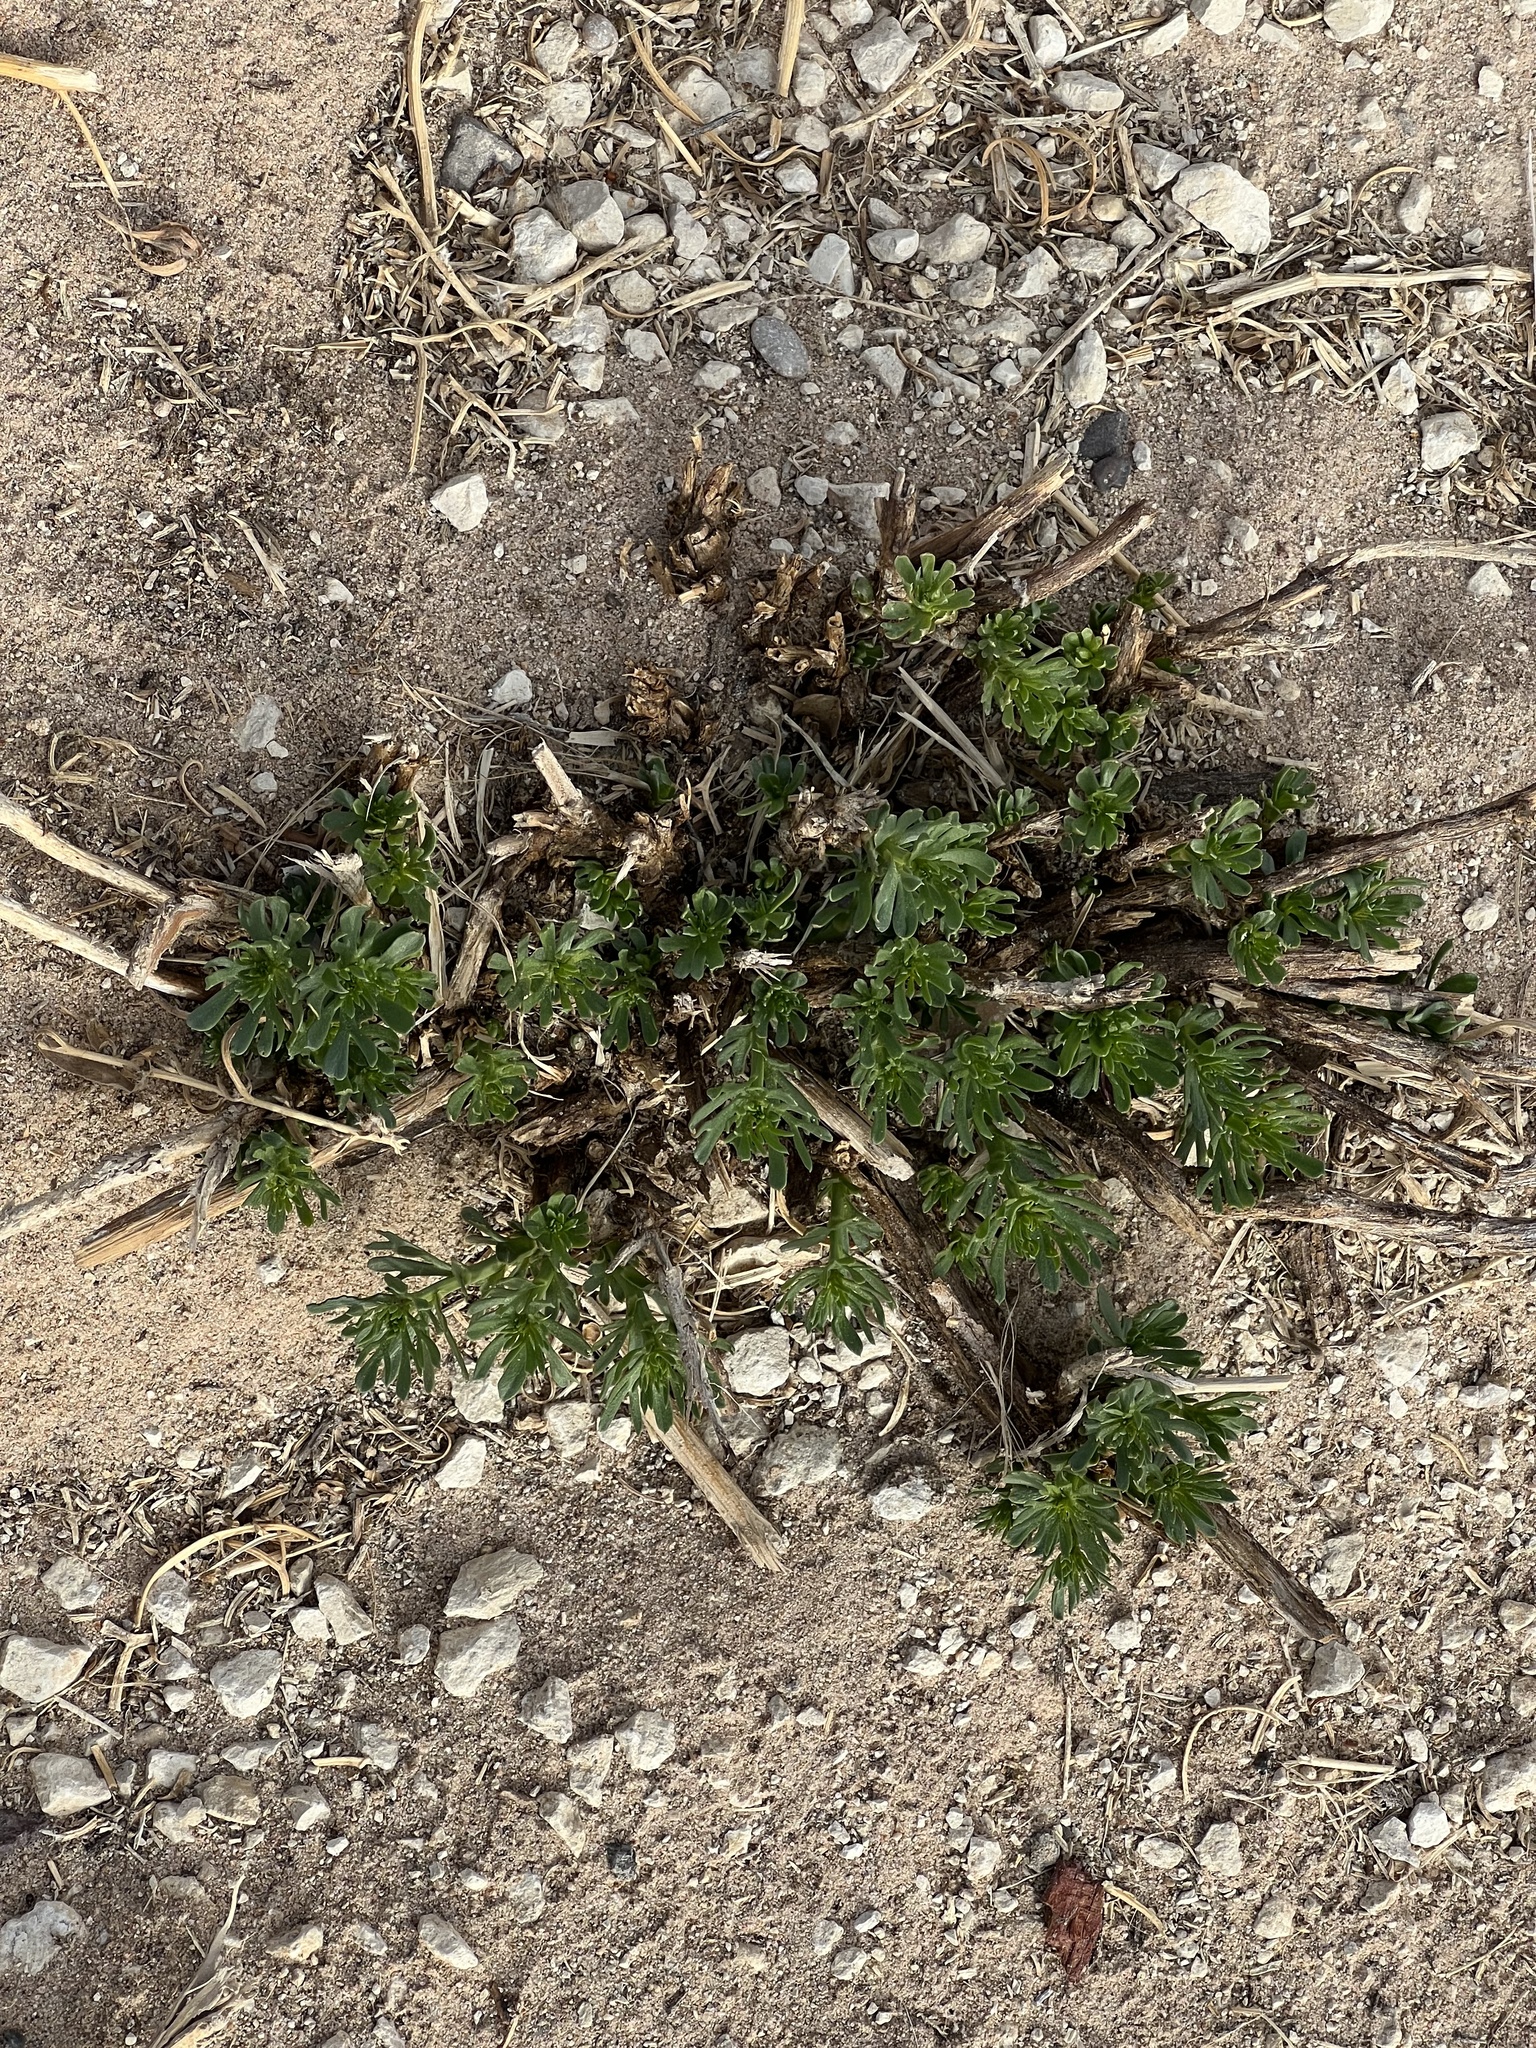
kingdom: Plantae
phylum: Tracheophyta
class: Magnoliopsida
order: Sapindales
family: Tetradiclidaceae
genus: Peganum
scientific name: Peganum harmala
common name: Harmal peganum
